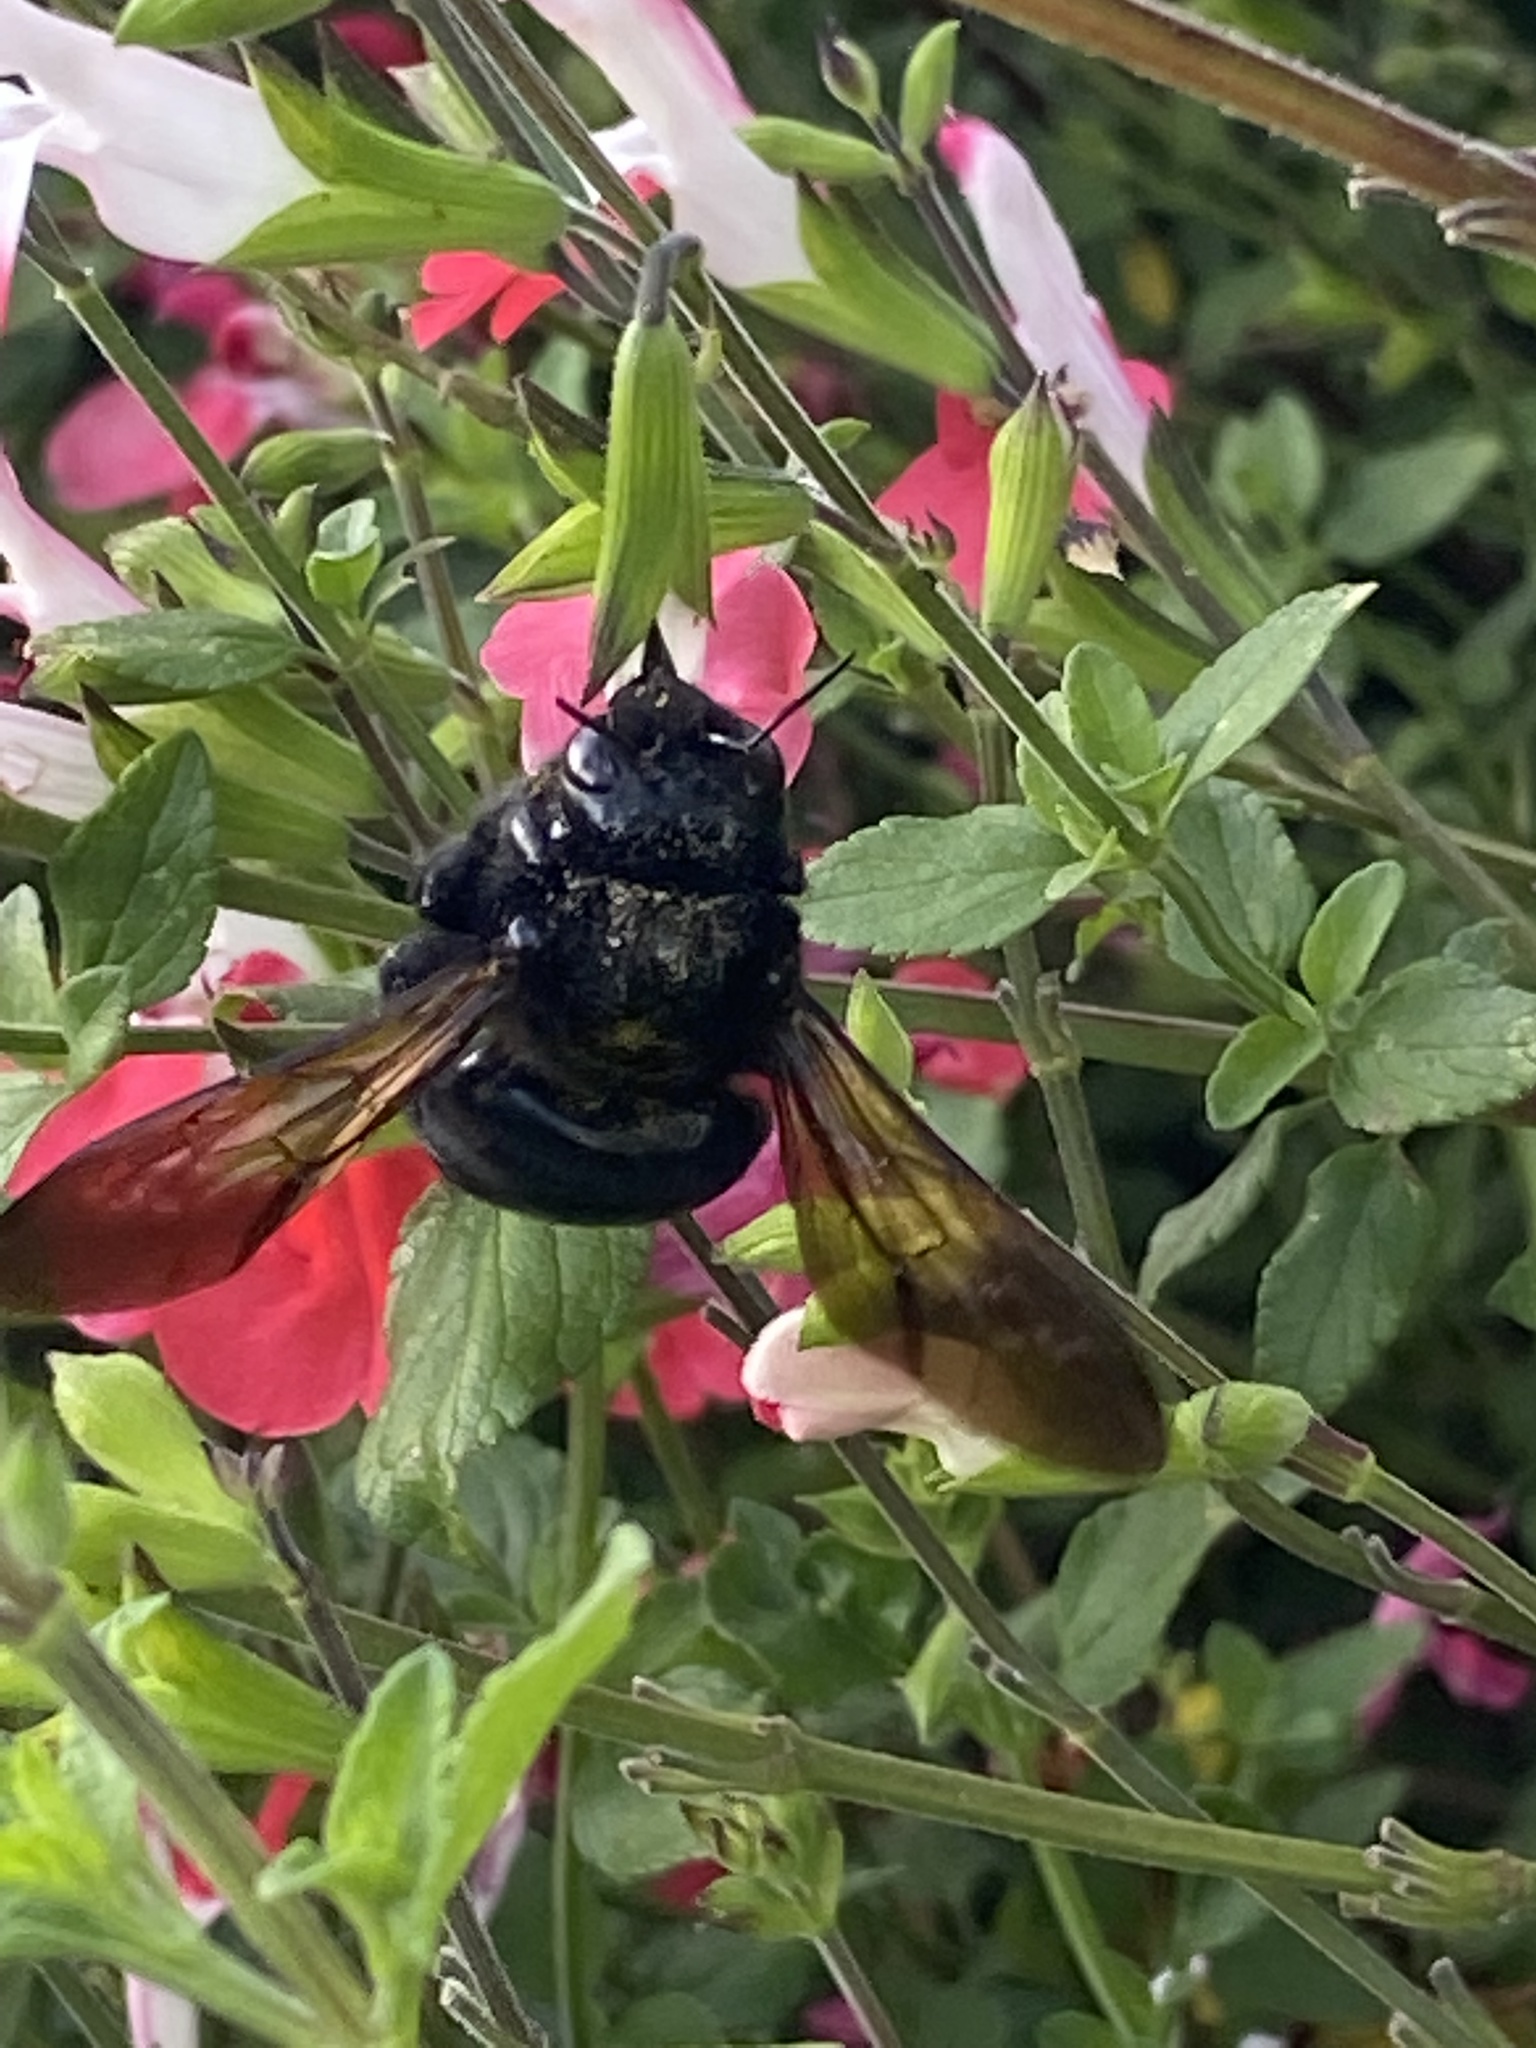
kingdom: Animalia
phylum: Arthropoda
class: Insecta
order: Hymenoptera
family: Apidae
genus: Xylocopa
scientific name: Xylocopa sonorina
